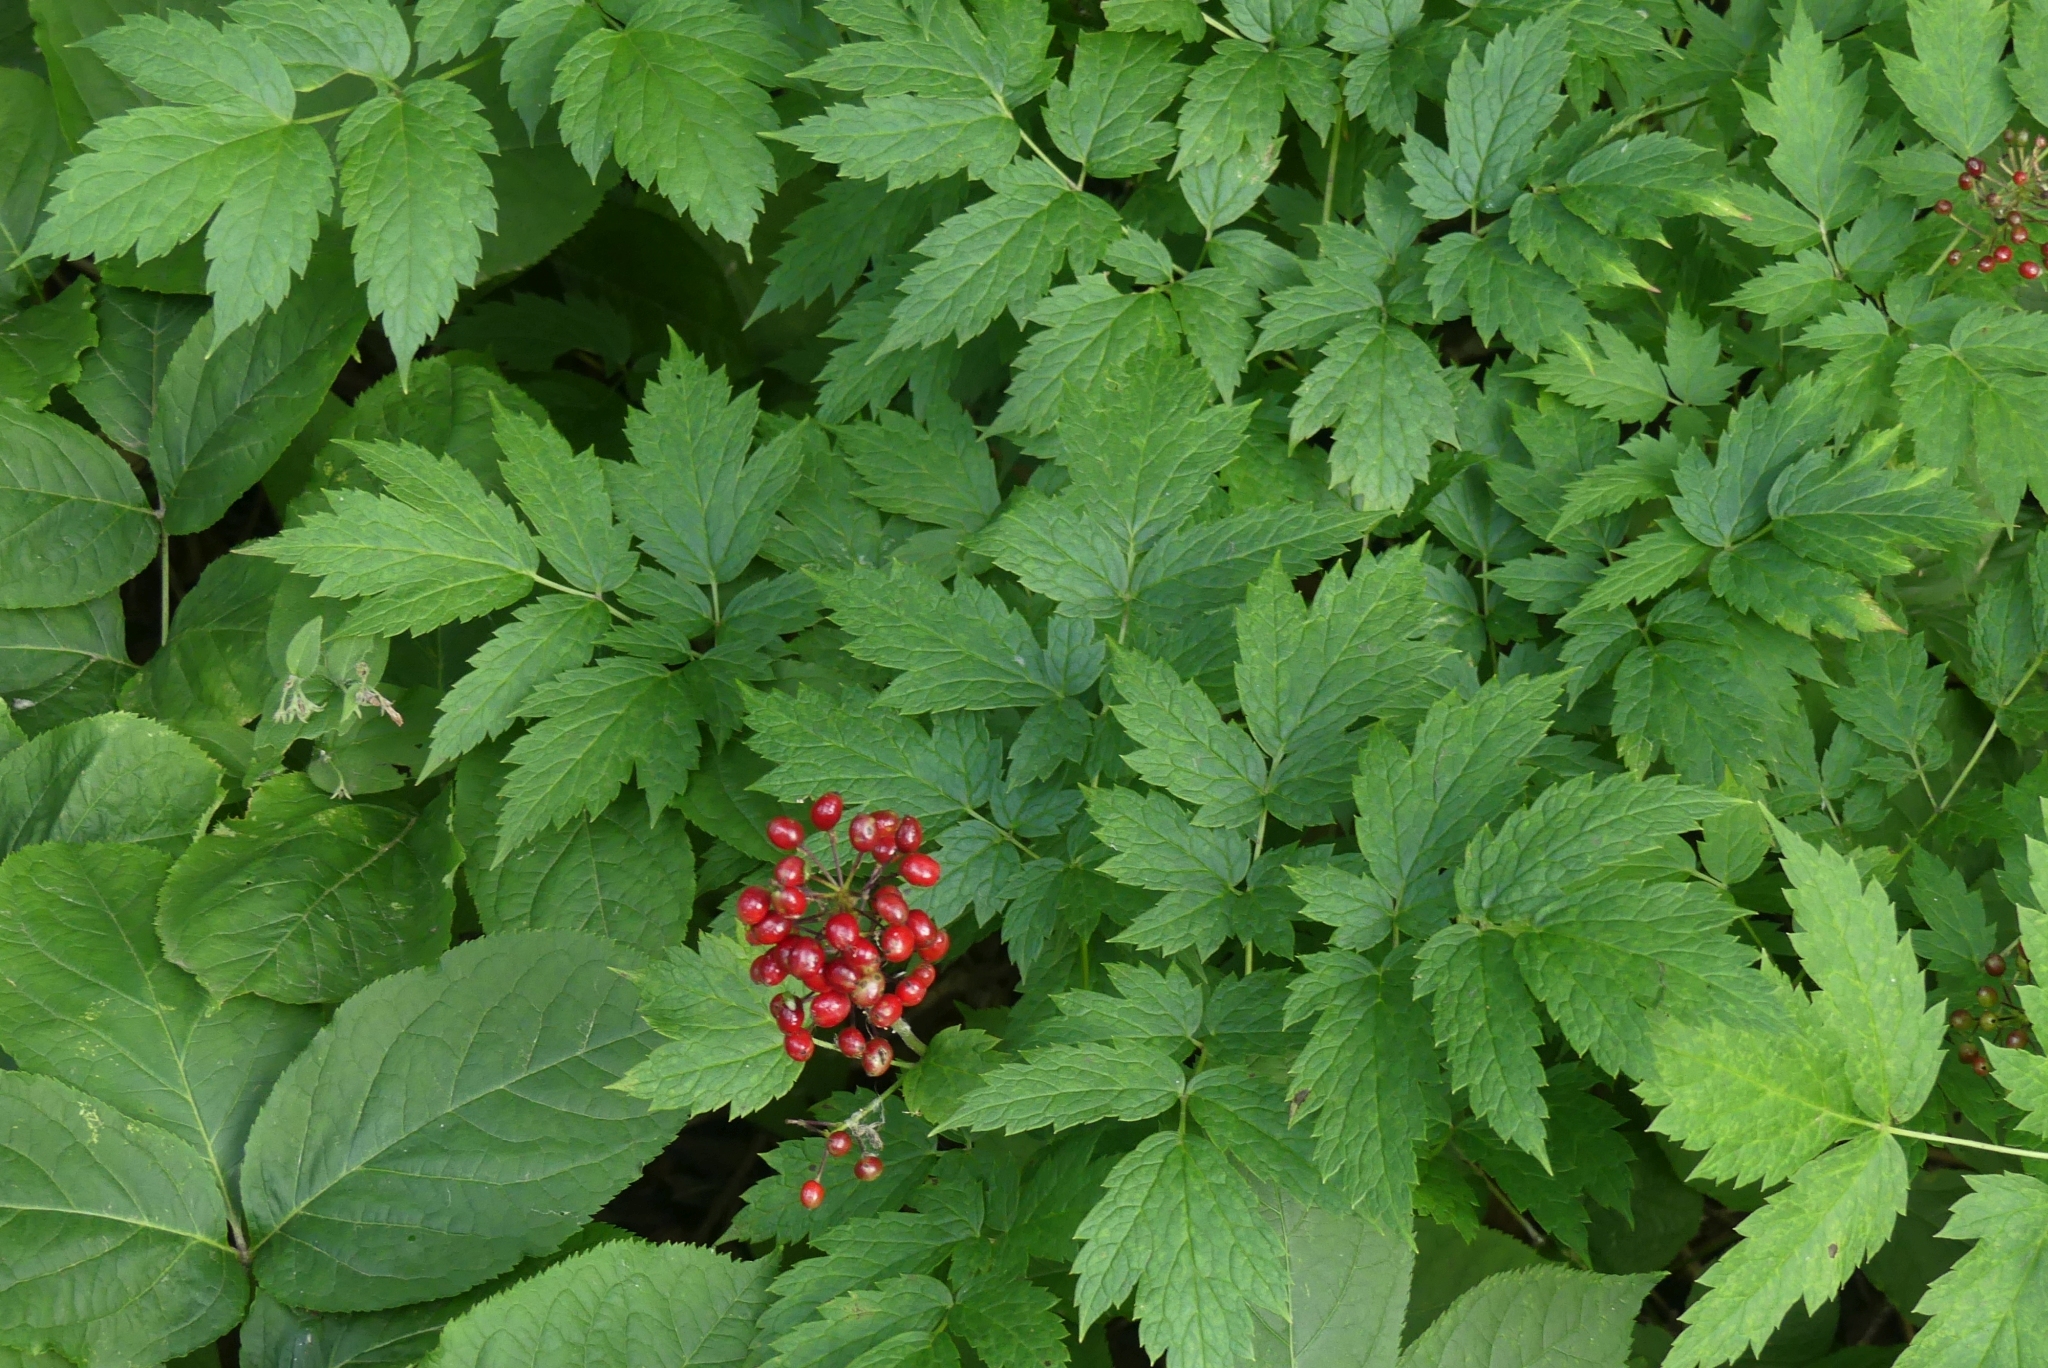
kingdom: Plantae
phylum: Tracheophyta
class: Magnoliopsida
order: Ranunculales
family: Ranunculaceae
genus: Actaea
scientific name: Actaea rubra
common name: Red baneberry
